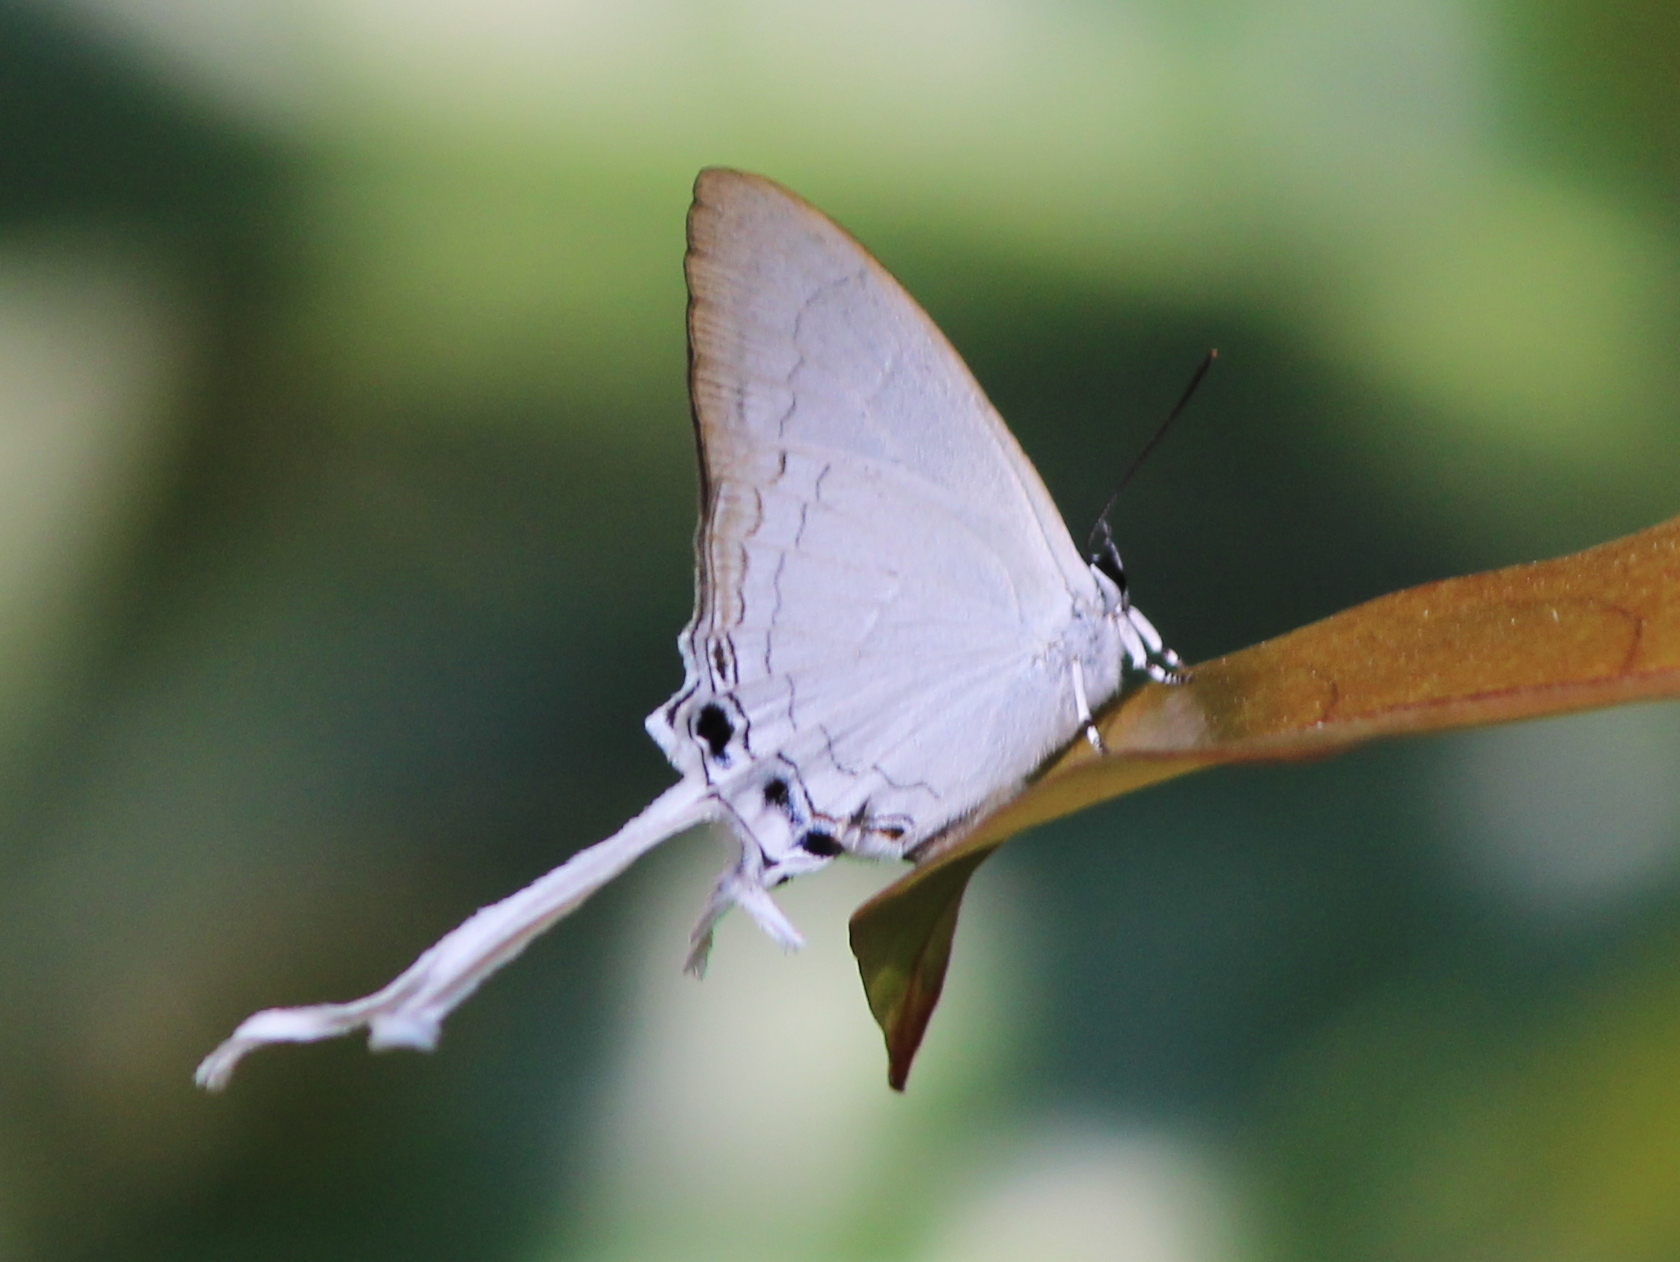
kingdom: Animalia
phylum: Arthropoda
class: Insecta
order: Lepidoptera
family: Lycaenidae
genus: Cheritra
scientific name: Cheritra freja
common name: Common imperial
